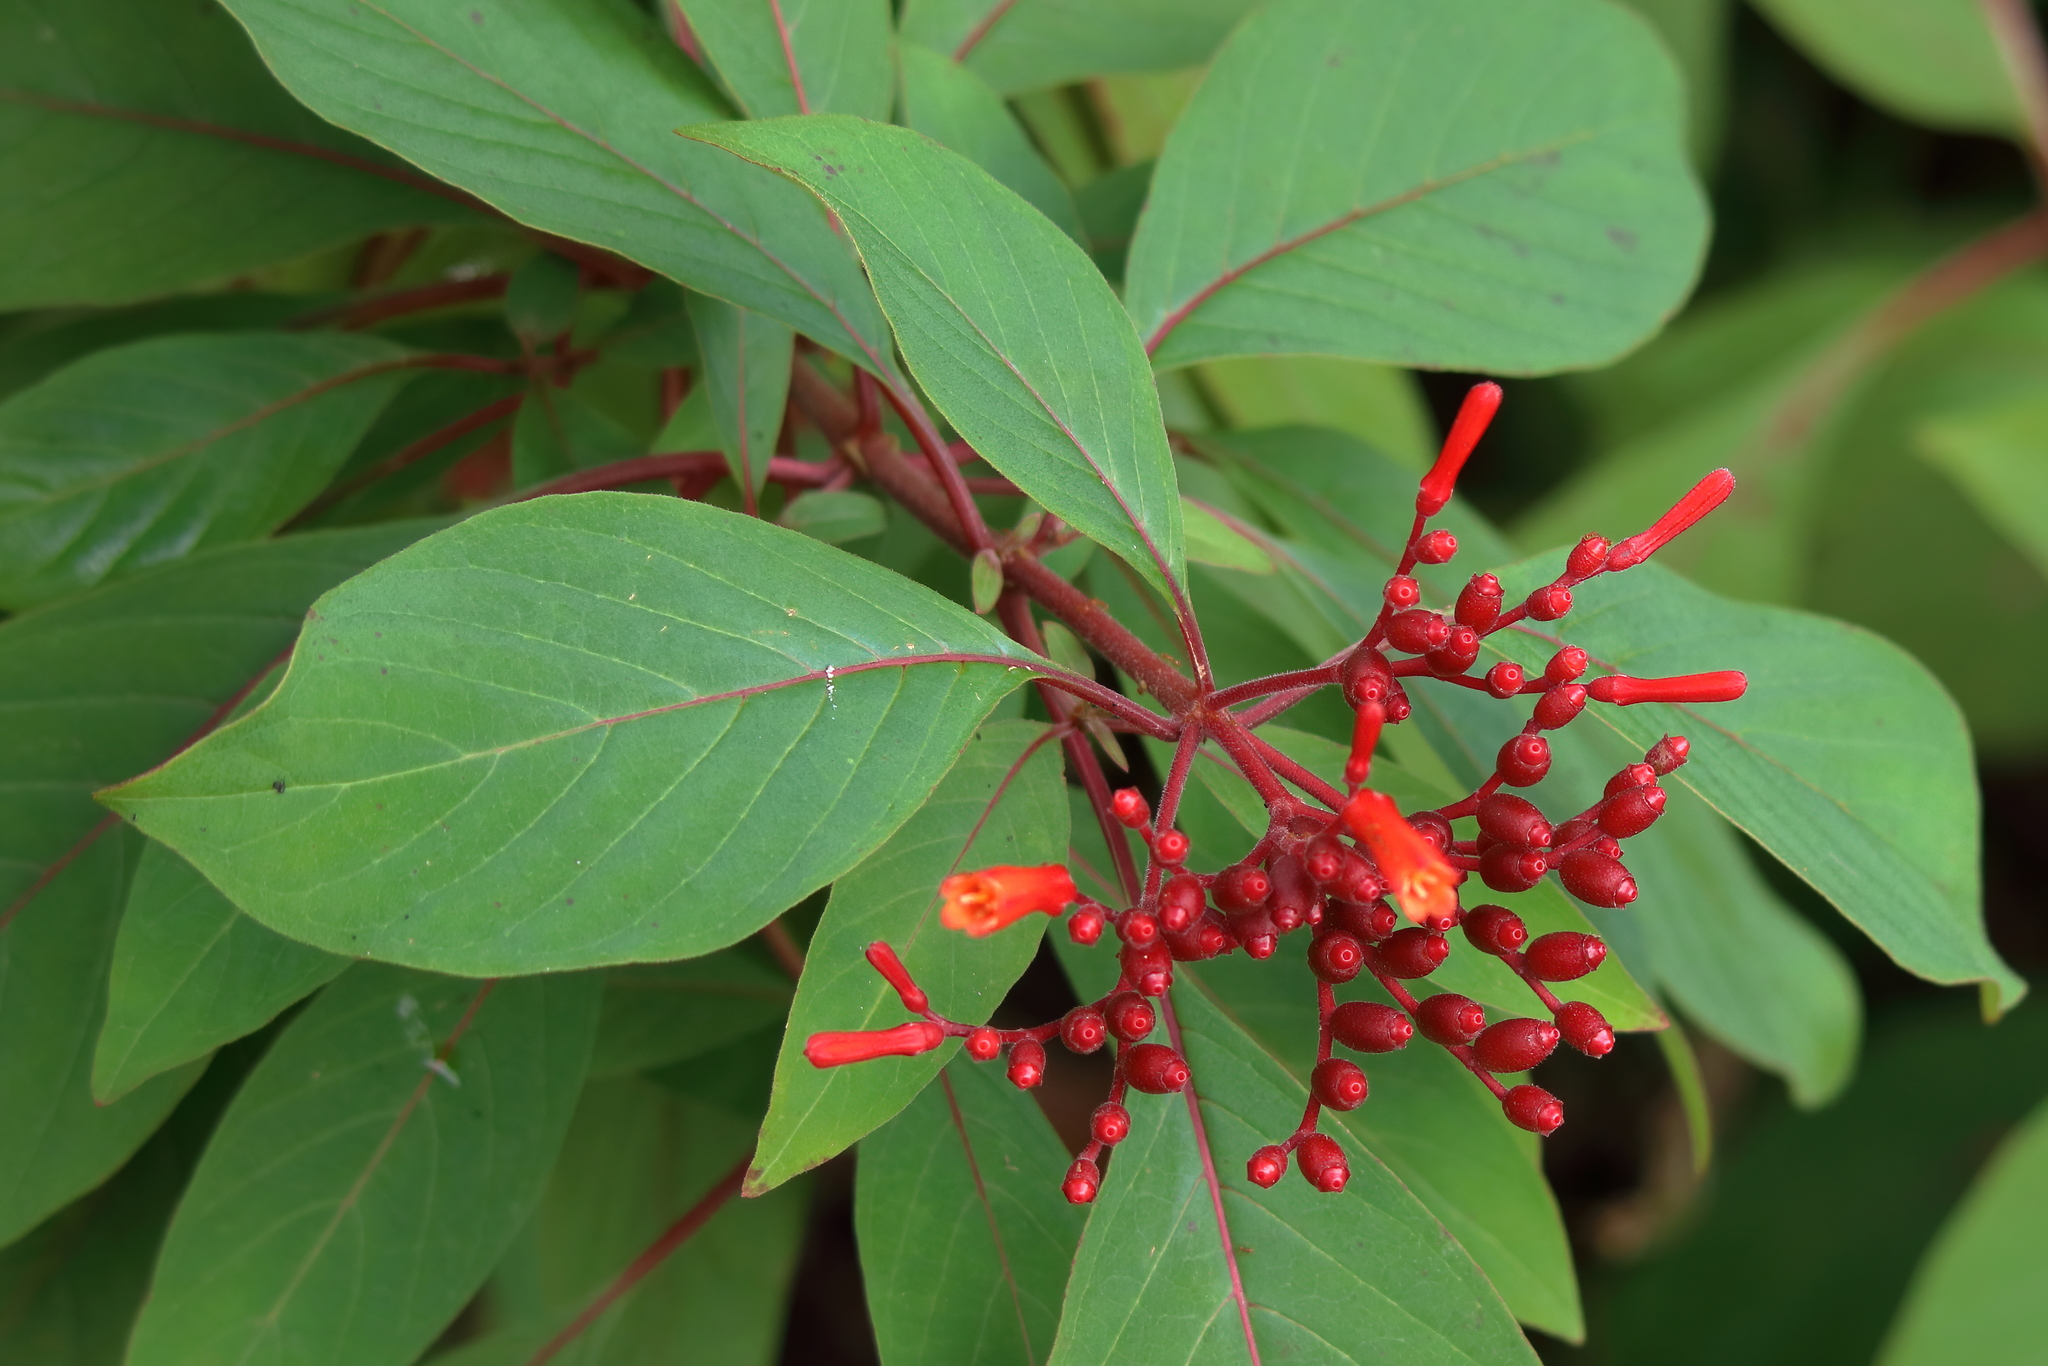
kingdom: Plantae
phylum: Tracheophyta
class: Magnoliopsida
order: Gentianales
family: Rubiaceae
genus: Hamelia
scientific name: Hamelia patens
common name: Redhead
